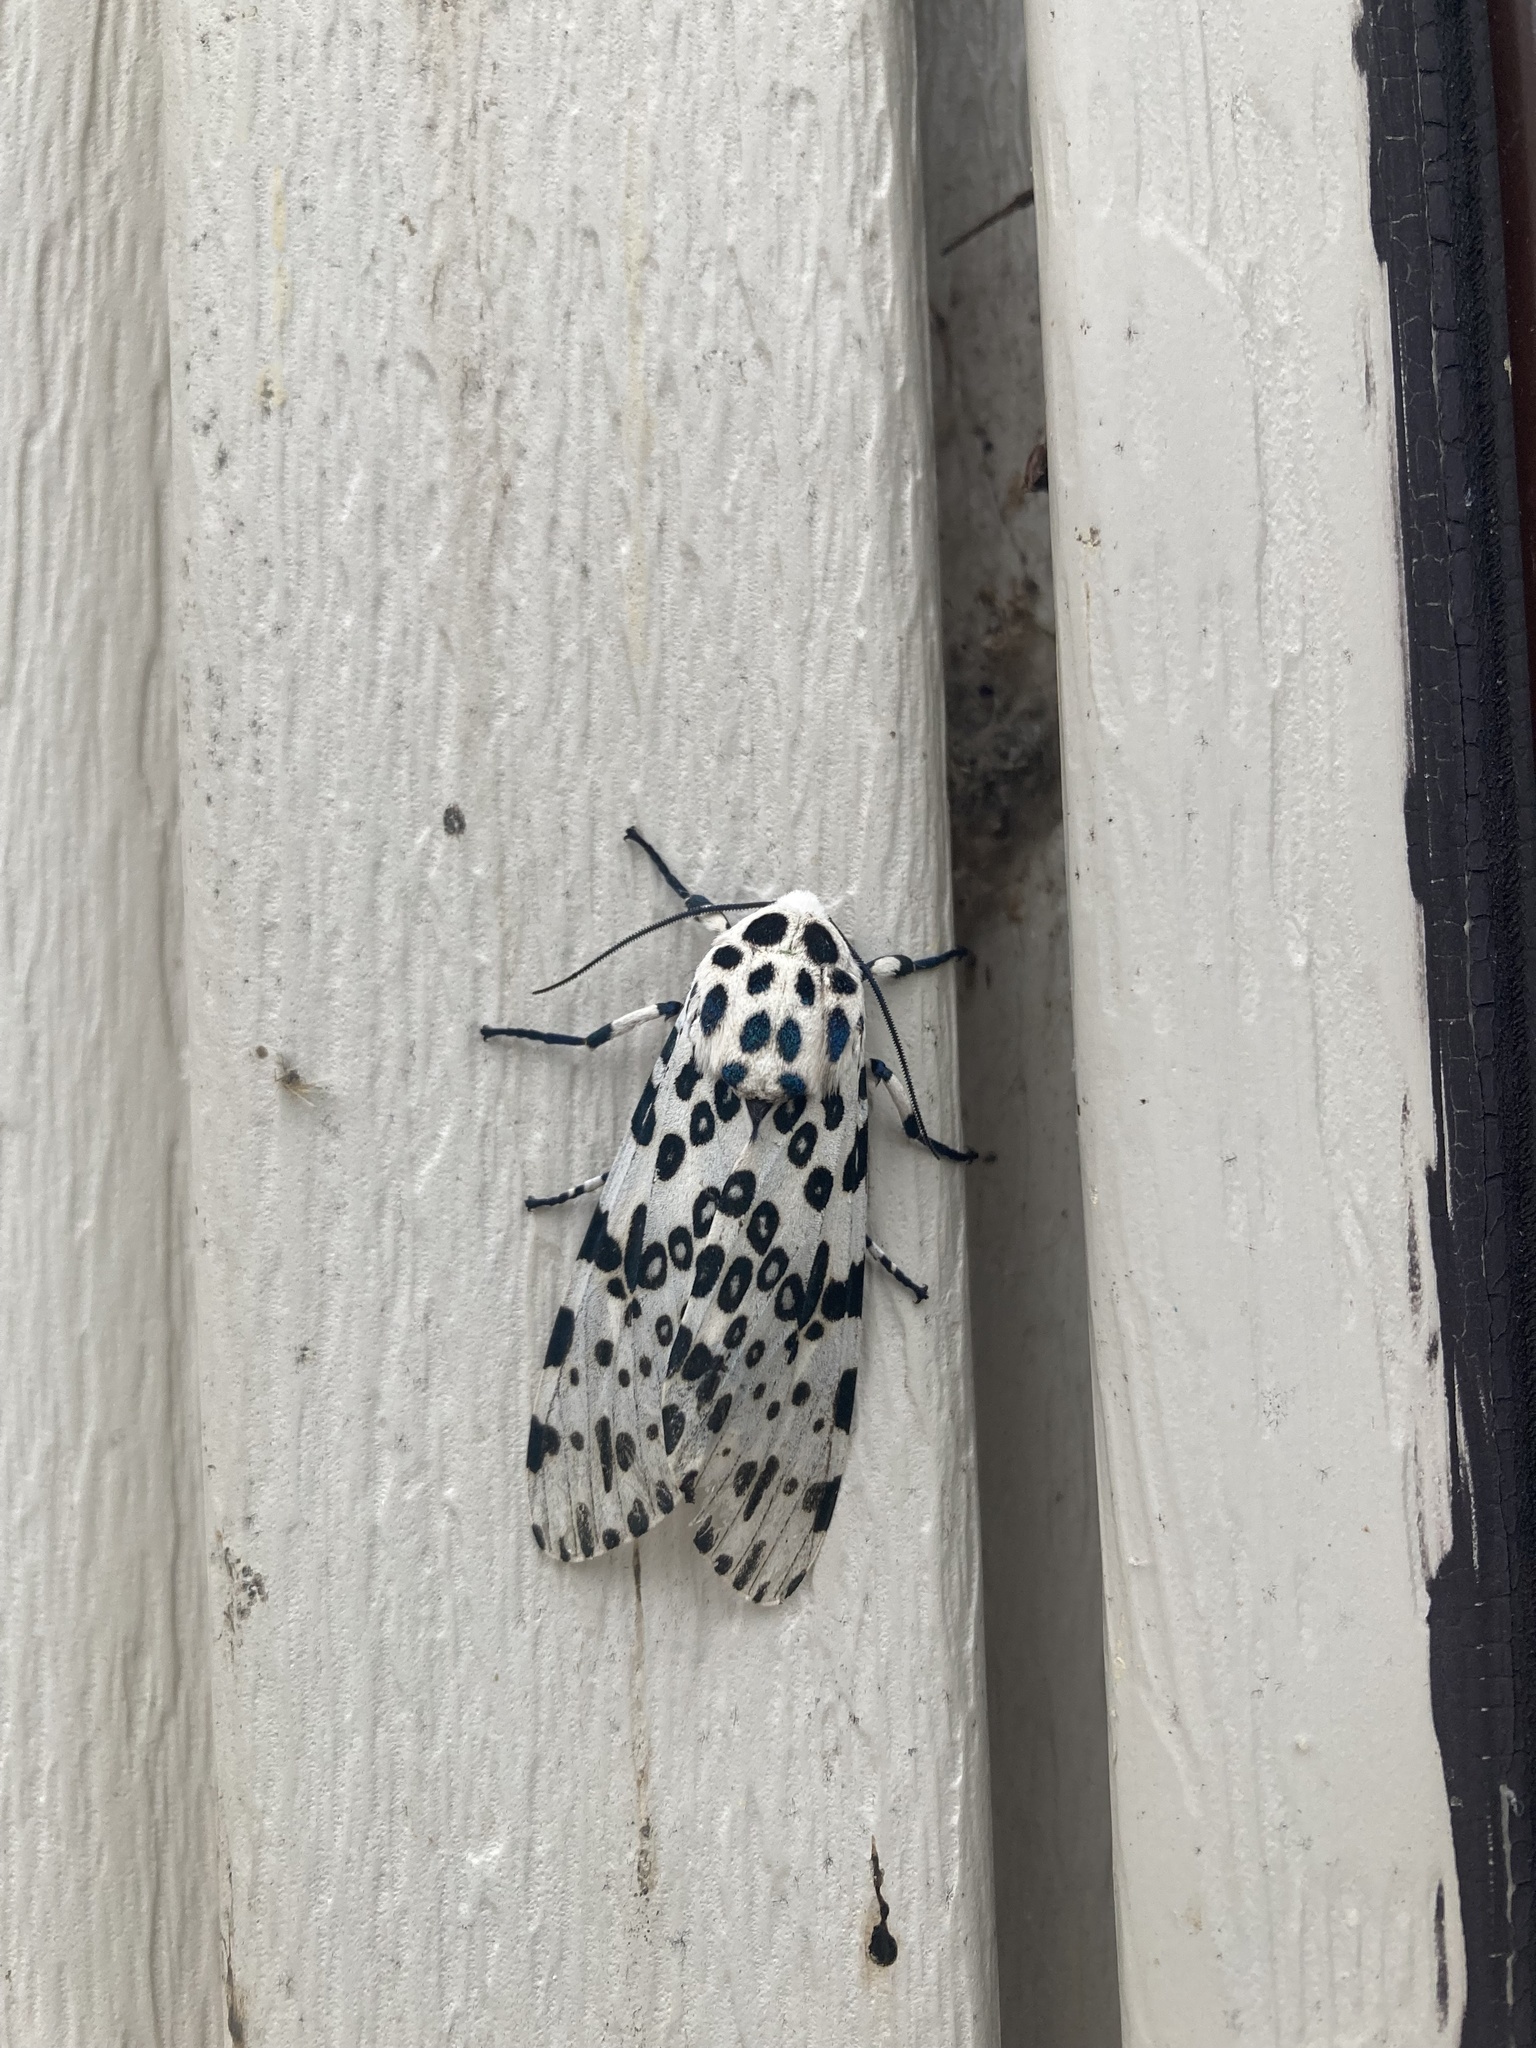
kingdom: Animalia
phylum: Arthropoda
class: Insecta
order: Lepidoptera
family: Erebidae
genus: Hypercompe
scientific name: Hypercompe scribonia
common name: Giant leopard moth
